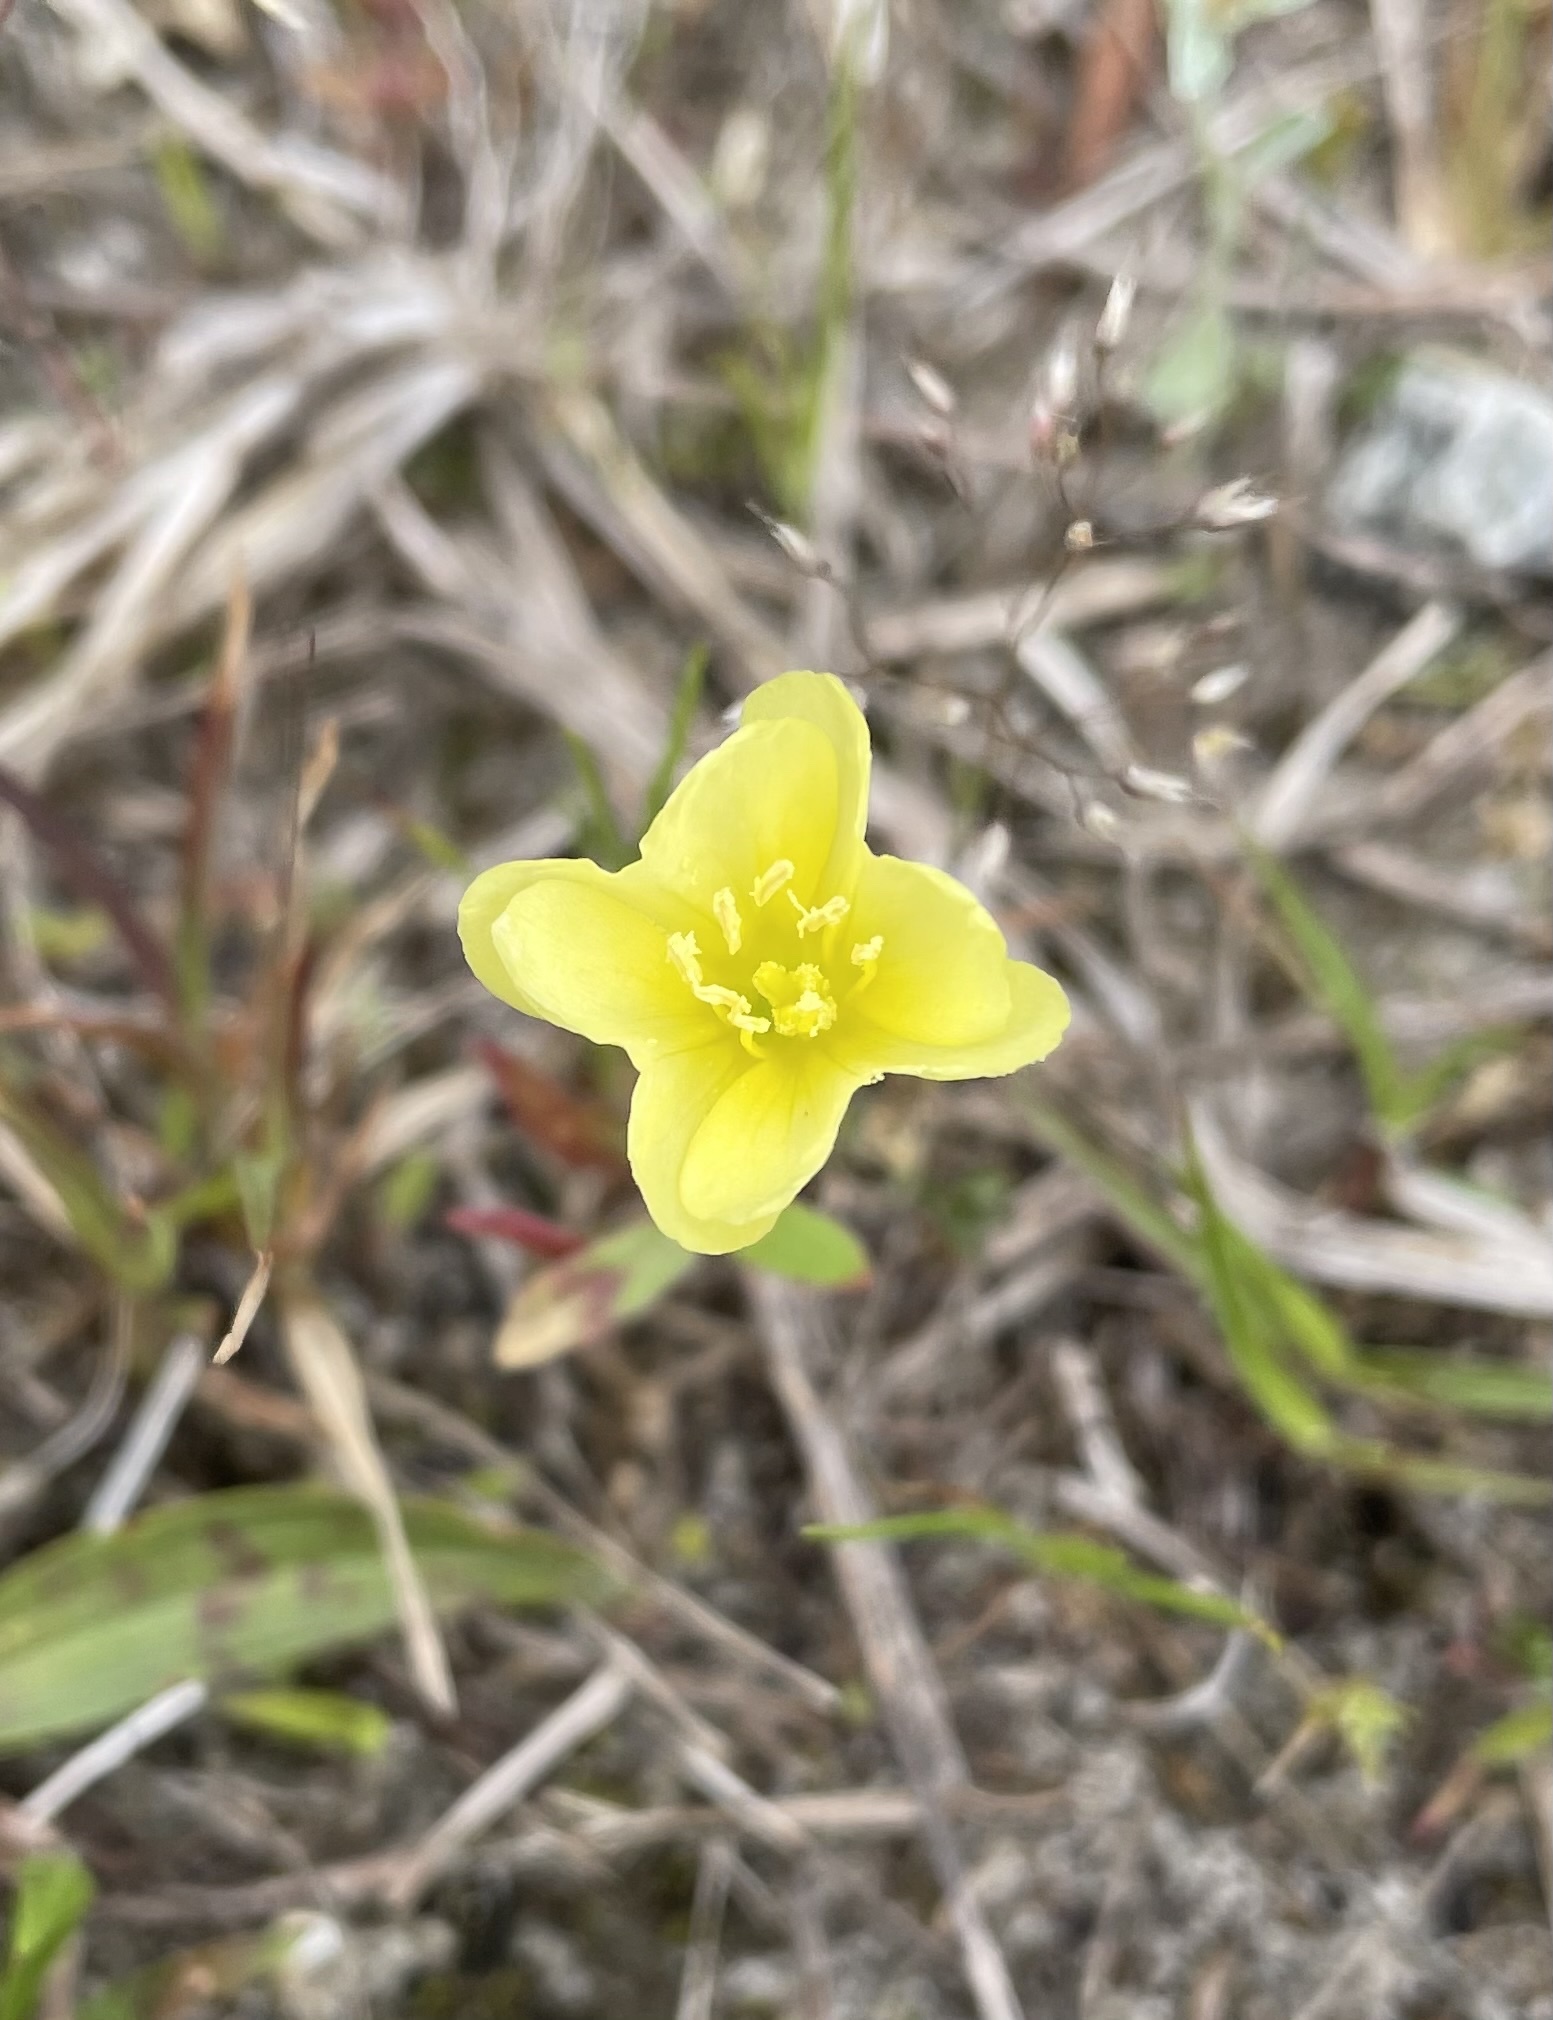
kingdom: Plantae
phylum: Tracheophyta
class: Magnoliopsida
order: Myrtales
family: Onagraceae
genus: Oenothera
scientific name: Oenothera laciniata
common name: Cut-leaved evening-primrose
